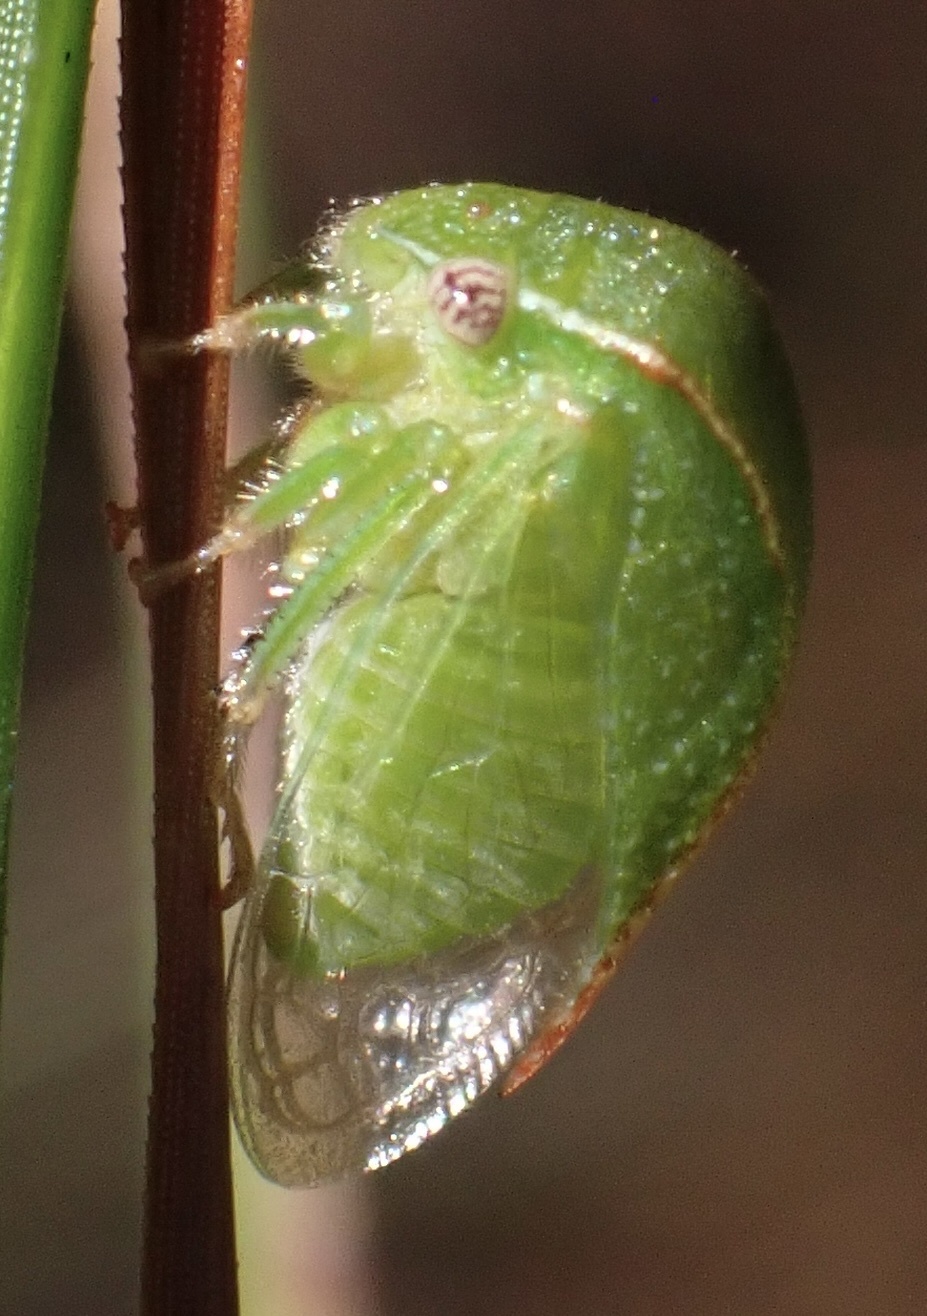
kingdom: Animalia
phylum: Arthropoda
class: Insecta
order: Hemiptera
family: Membracidae
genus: Spissistilus
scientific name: Spissistilus festina
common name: Membracid bug
